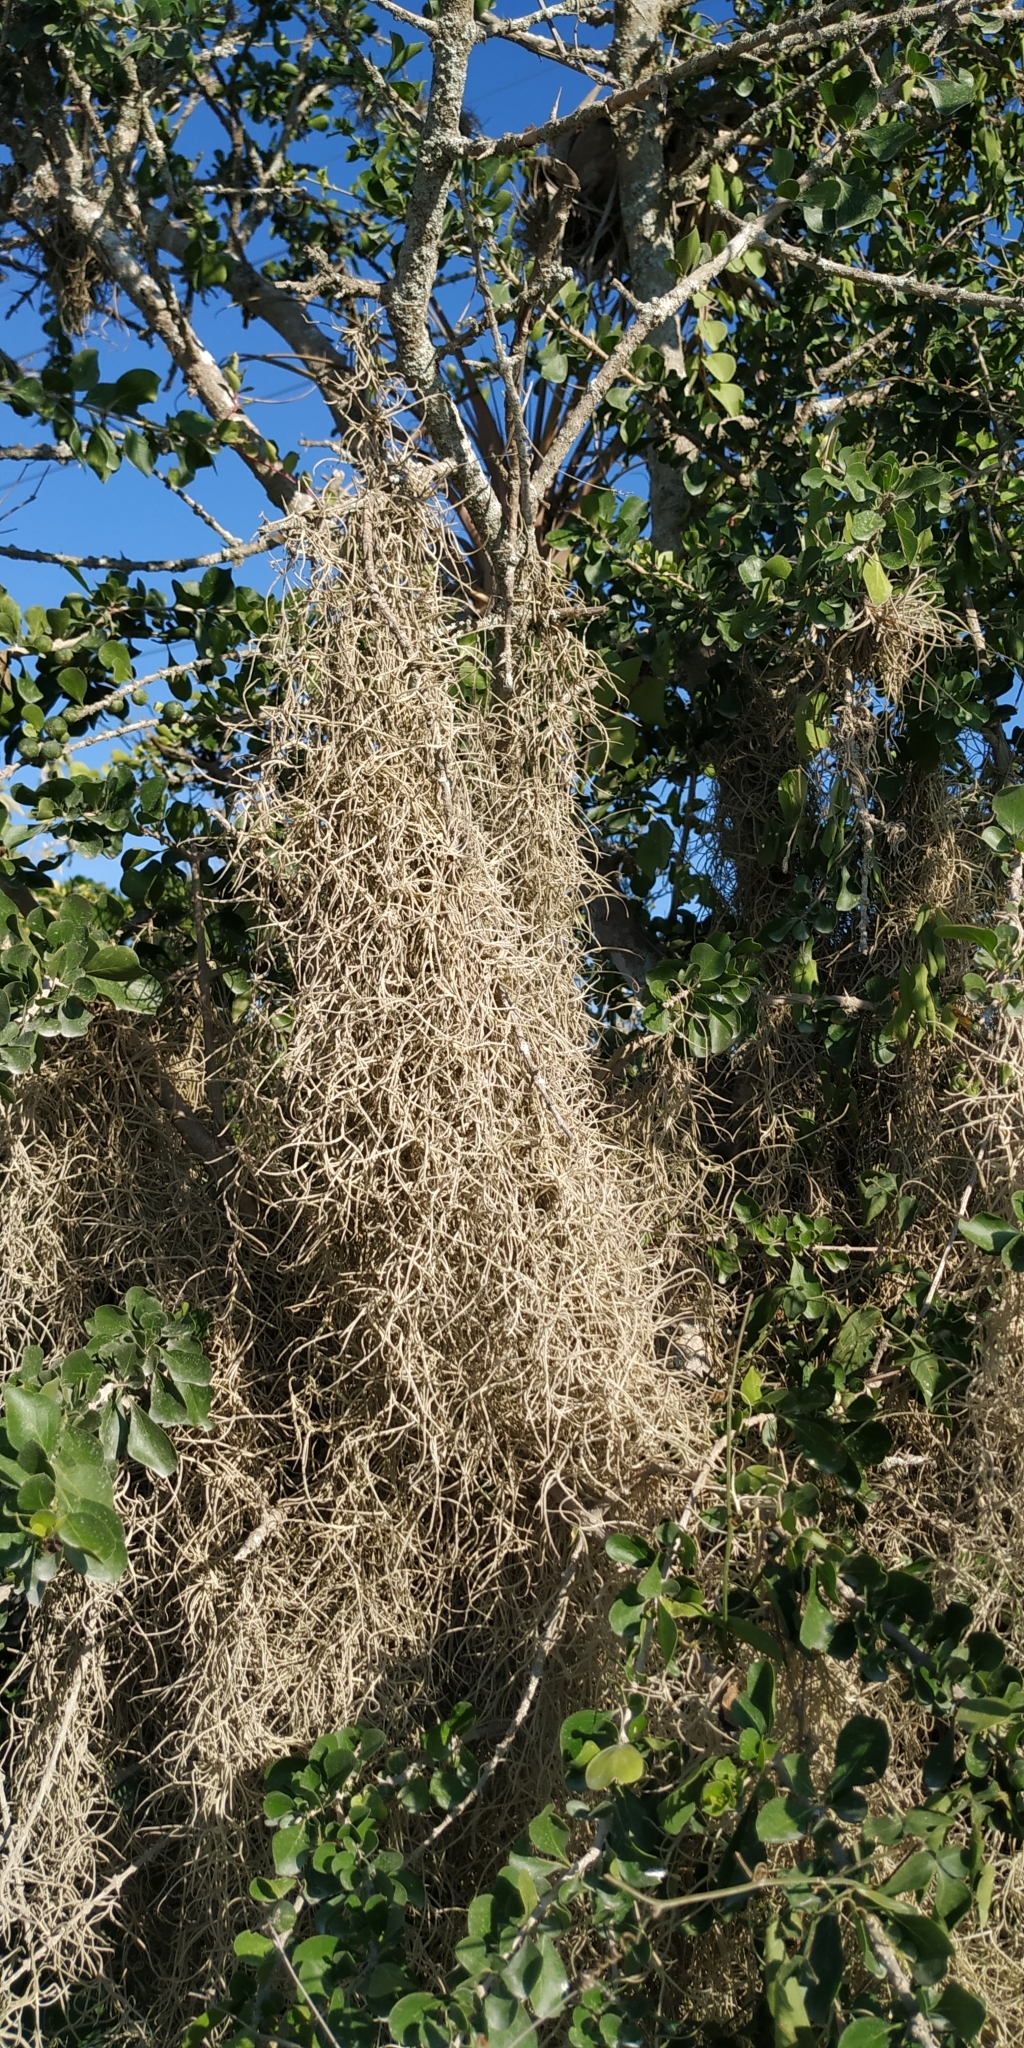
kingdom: Plantae
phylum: Tracheophyta
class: Liliopsida
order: Poales
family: Bromeliaceae
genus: Tillandsia
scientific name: Tillandsia usneoides
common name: Spanish moss
